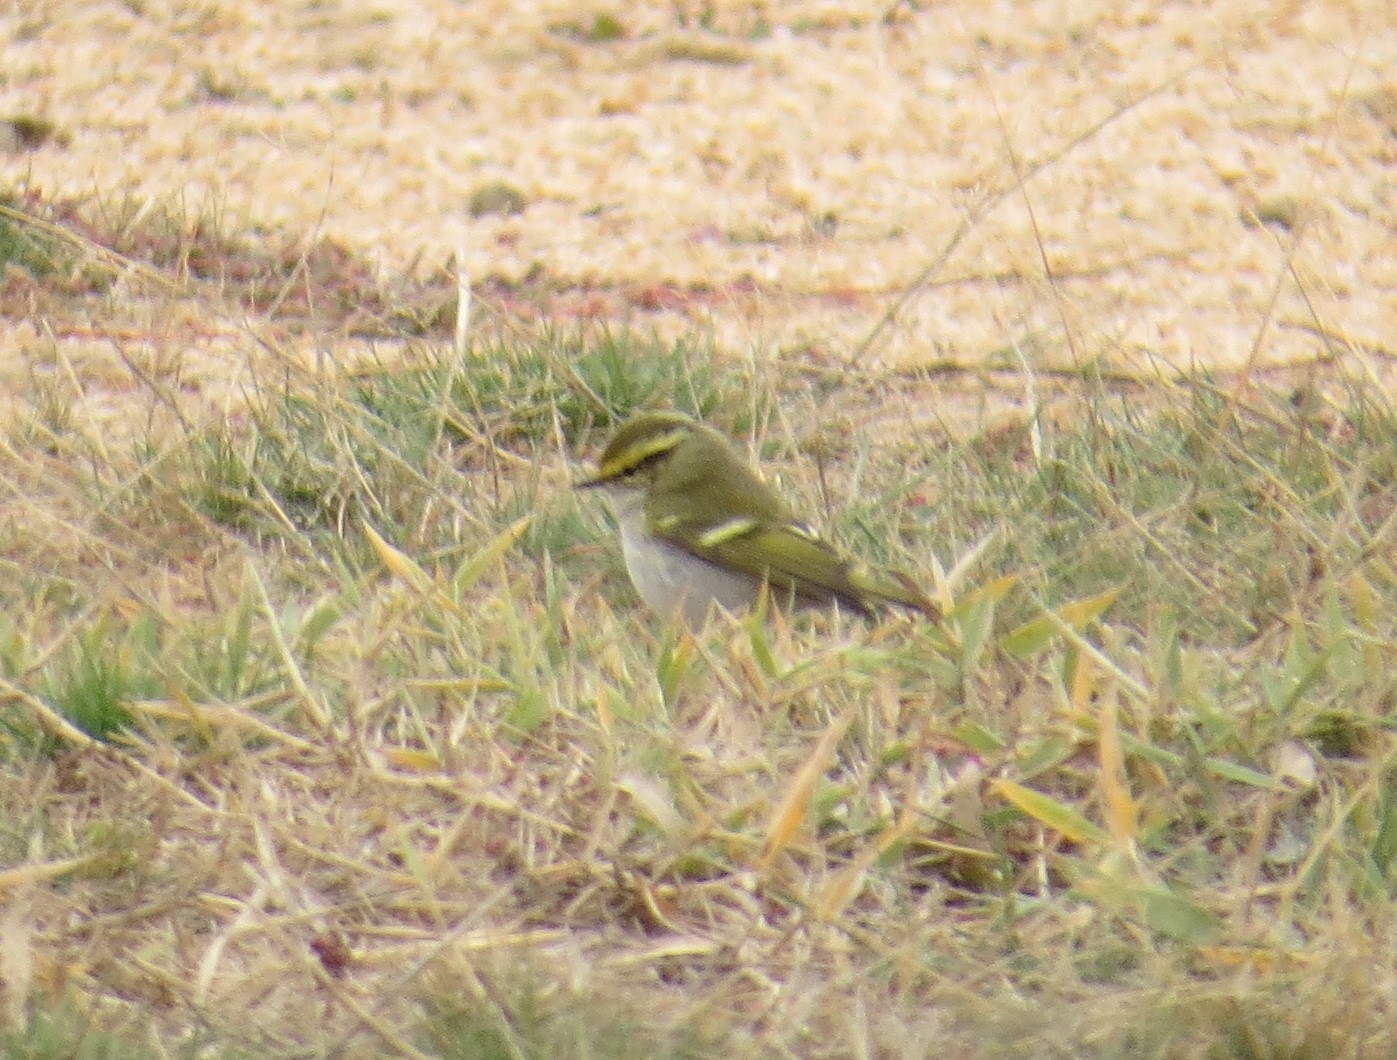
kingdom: Animalia
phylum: Chordata
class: Aves
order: Passeriformes
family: Phylloscopidae
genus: Phylloscopus
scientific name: Phylloscopus proregulus
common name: Pallas's leaf warbler
